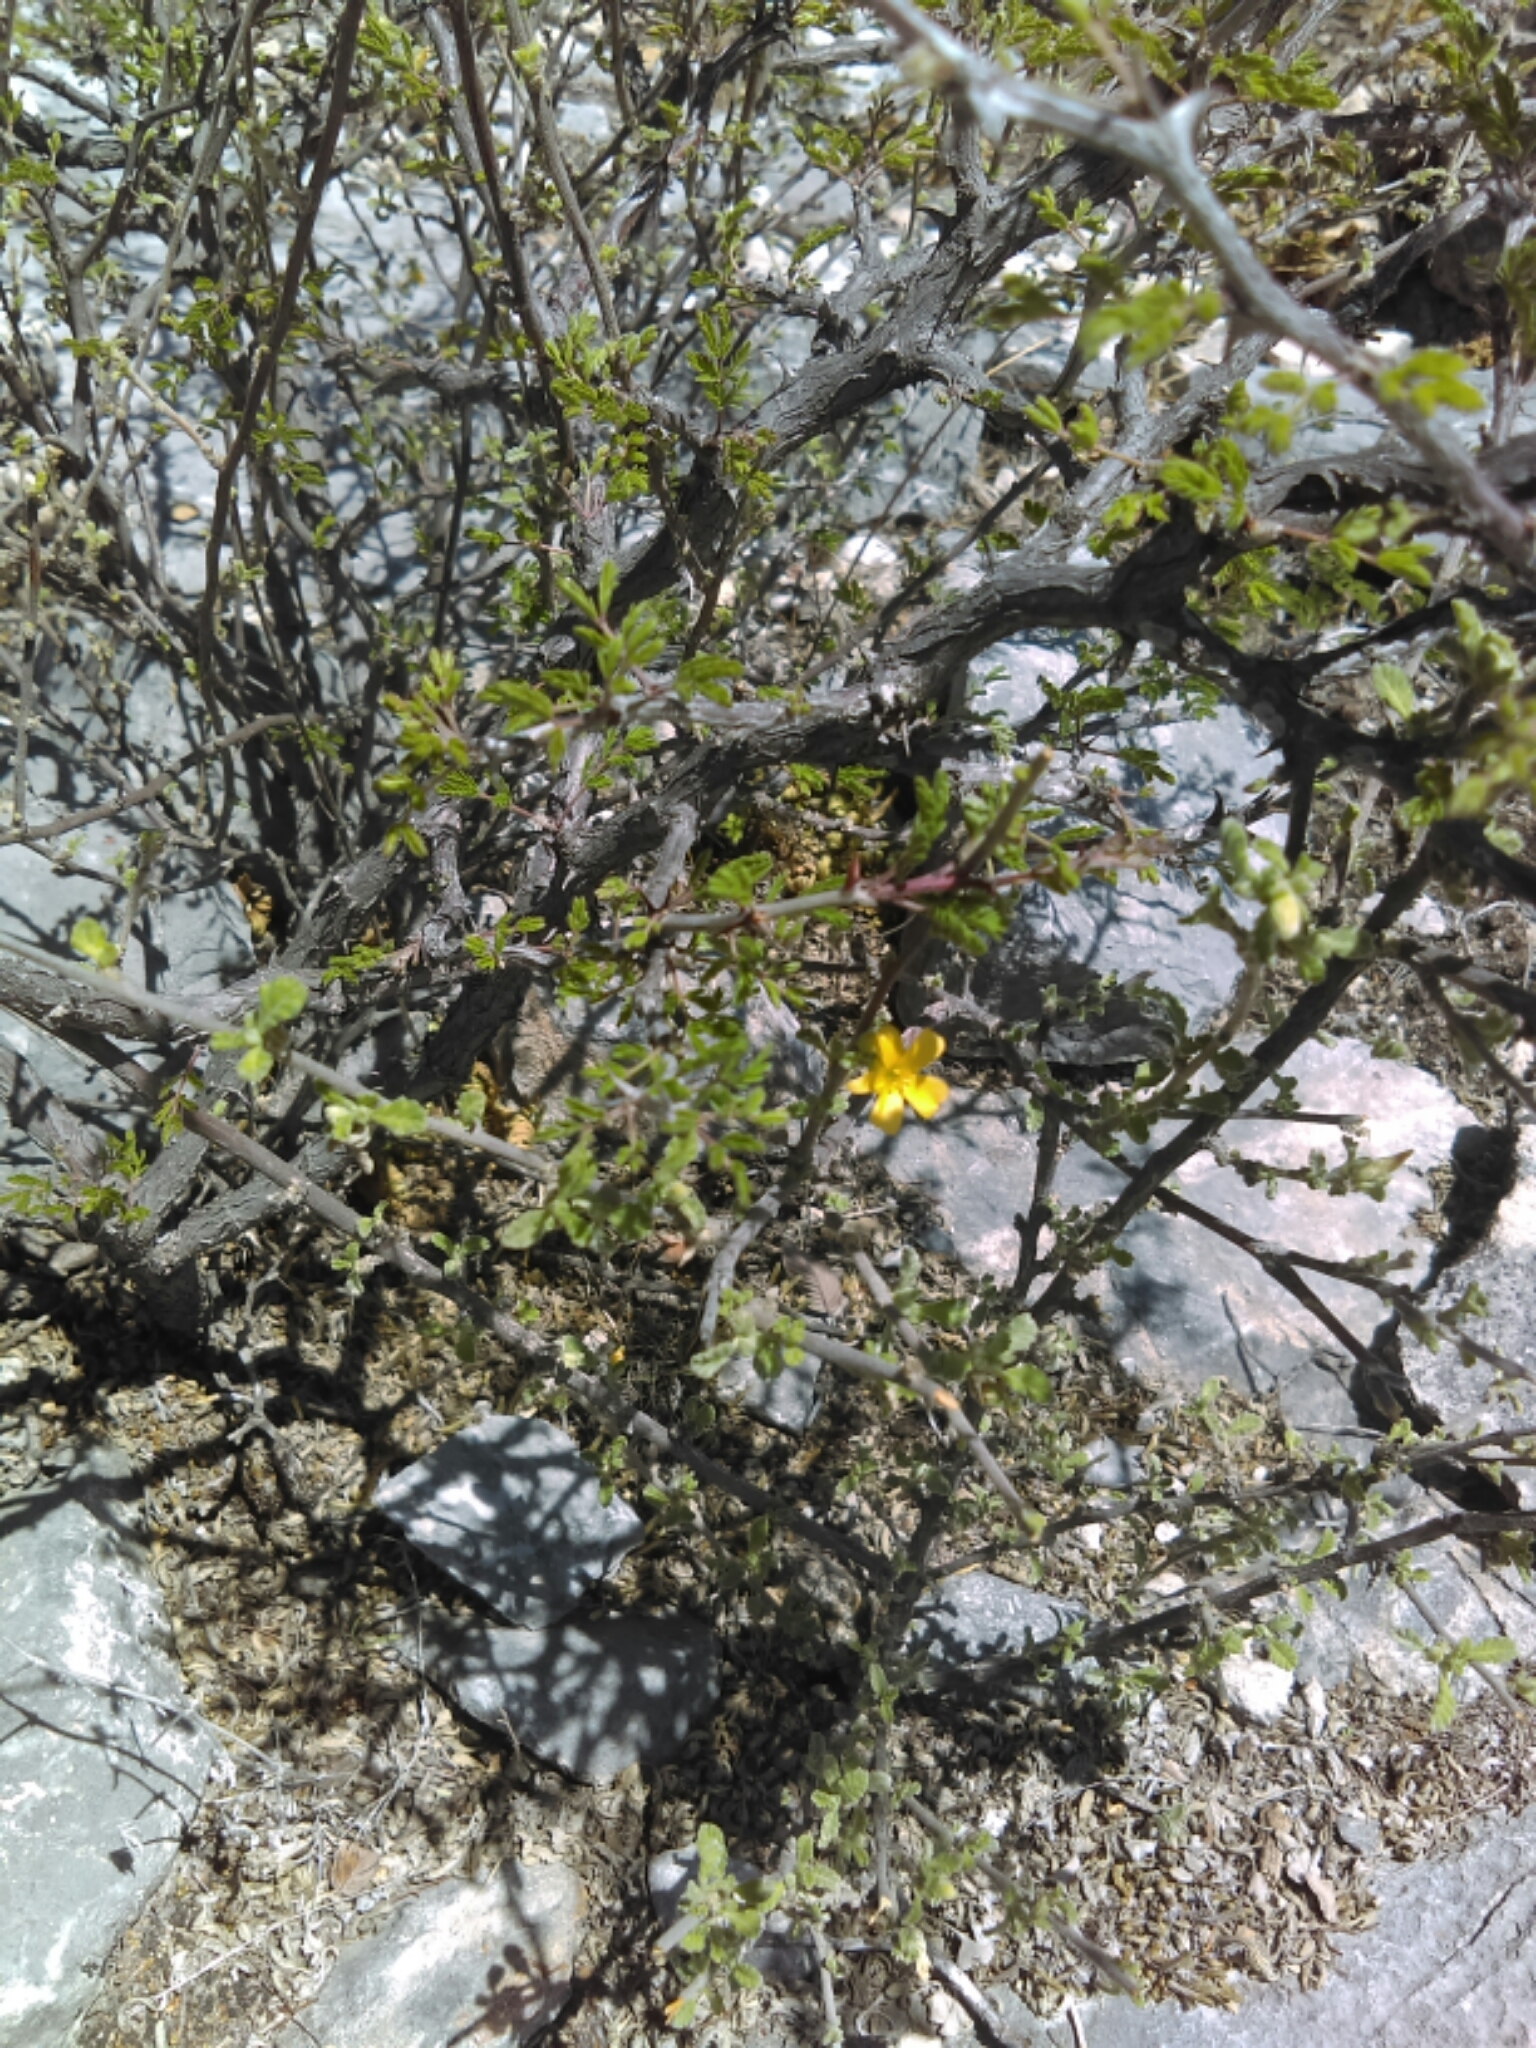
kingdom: Plantae
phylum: Tracheophyta
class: Magnoliopsida
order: Malpighiales
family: Turneraceae
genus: Turnera
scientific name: Turnera diffusa
